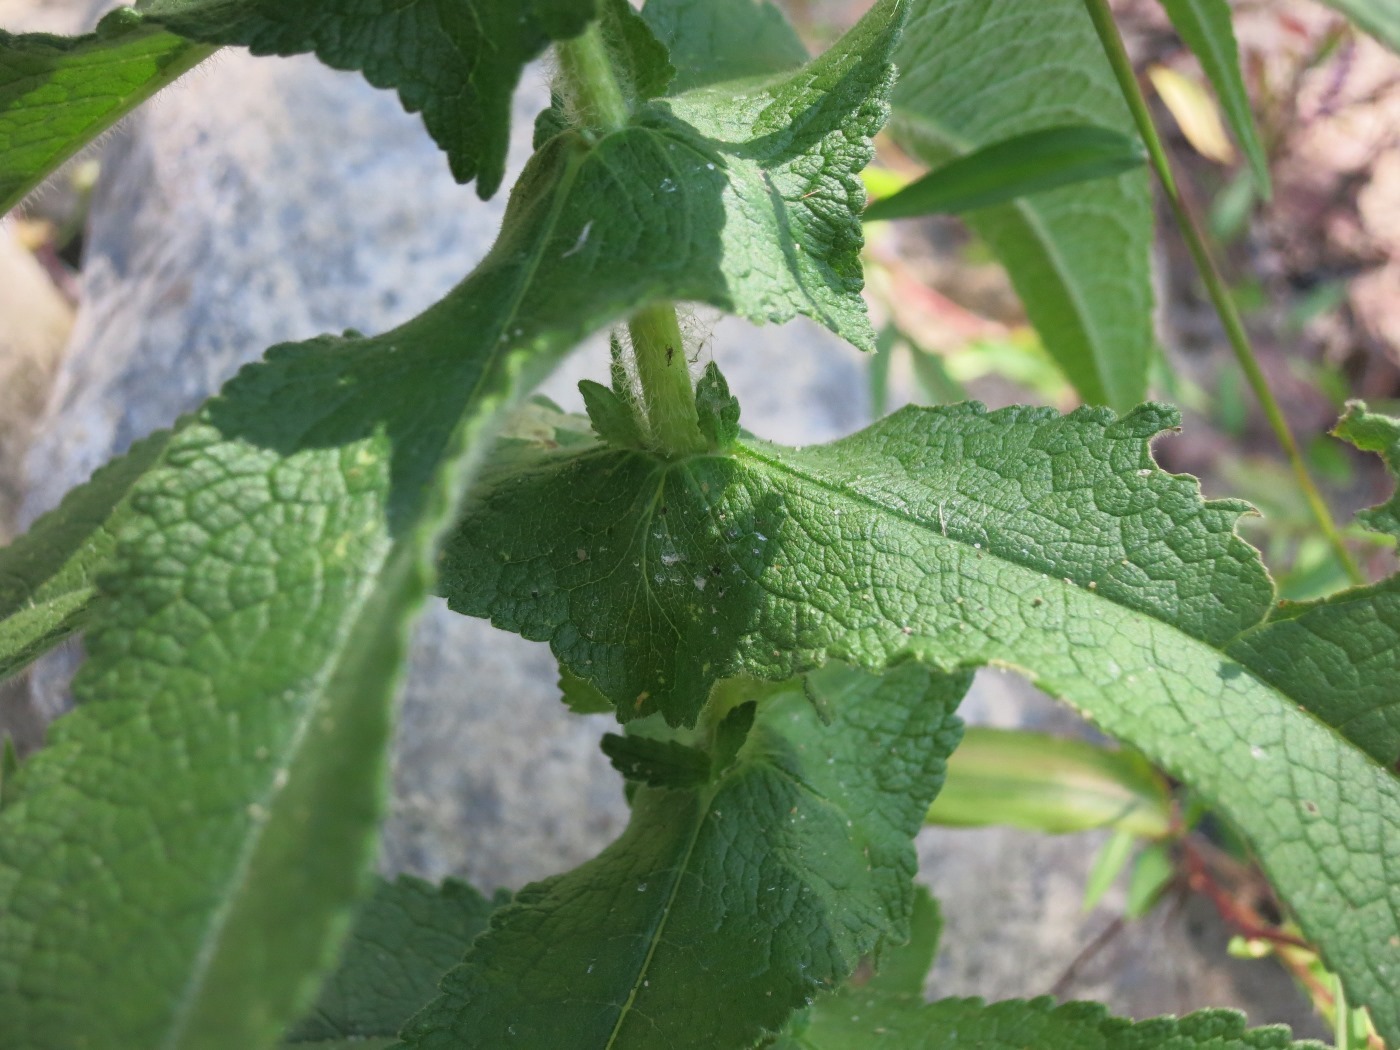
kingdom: Plantae
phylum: Tracheophyta
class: Magnoliopsida
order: Asterales
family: Asteraceae
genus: Eupatorium
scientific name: Eupatorium perfoliatum
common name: Boneset
